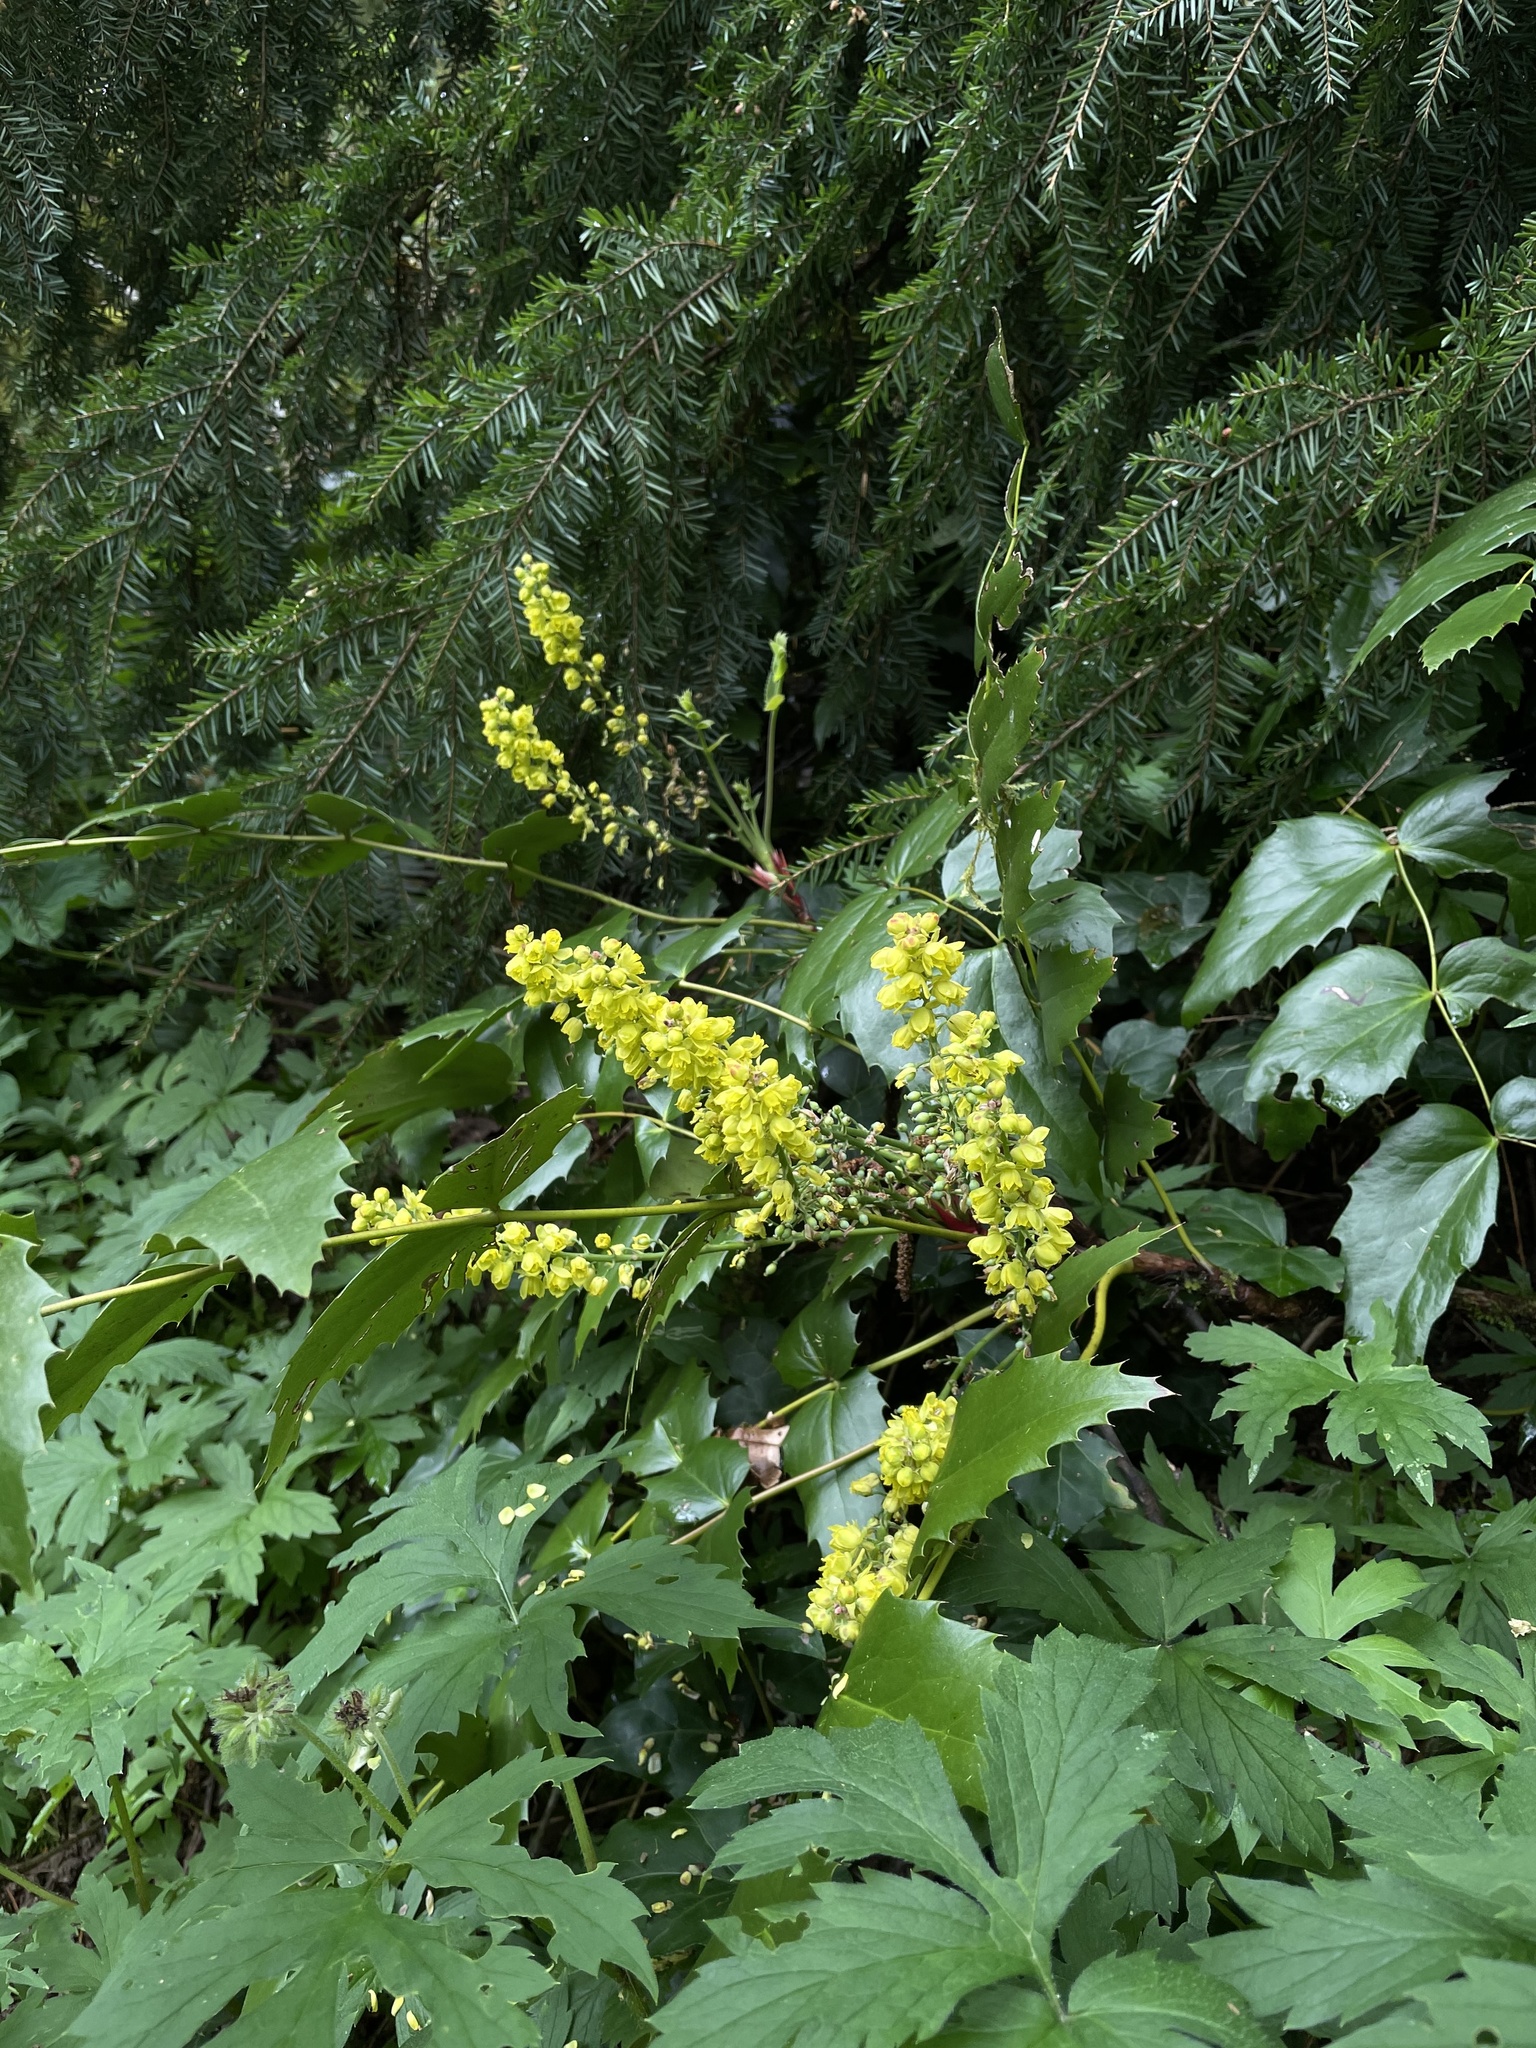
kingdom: Plantae
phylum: Tracheophyta
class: Magnoliopsida
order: Ranunculales
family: Berberidaceae
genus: Mahonia
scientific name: Mahonia nervosa
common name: Cascade oregon-grape
